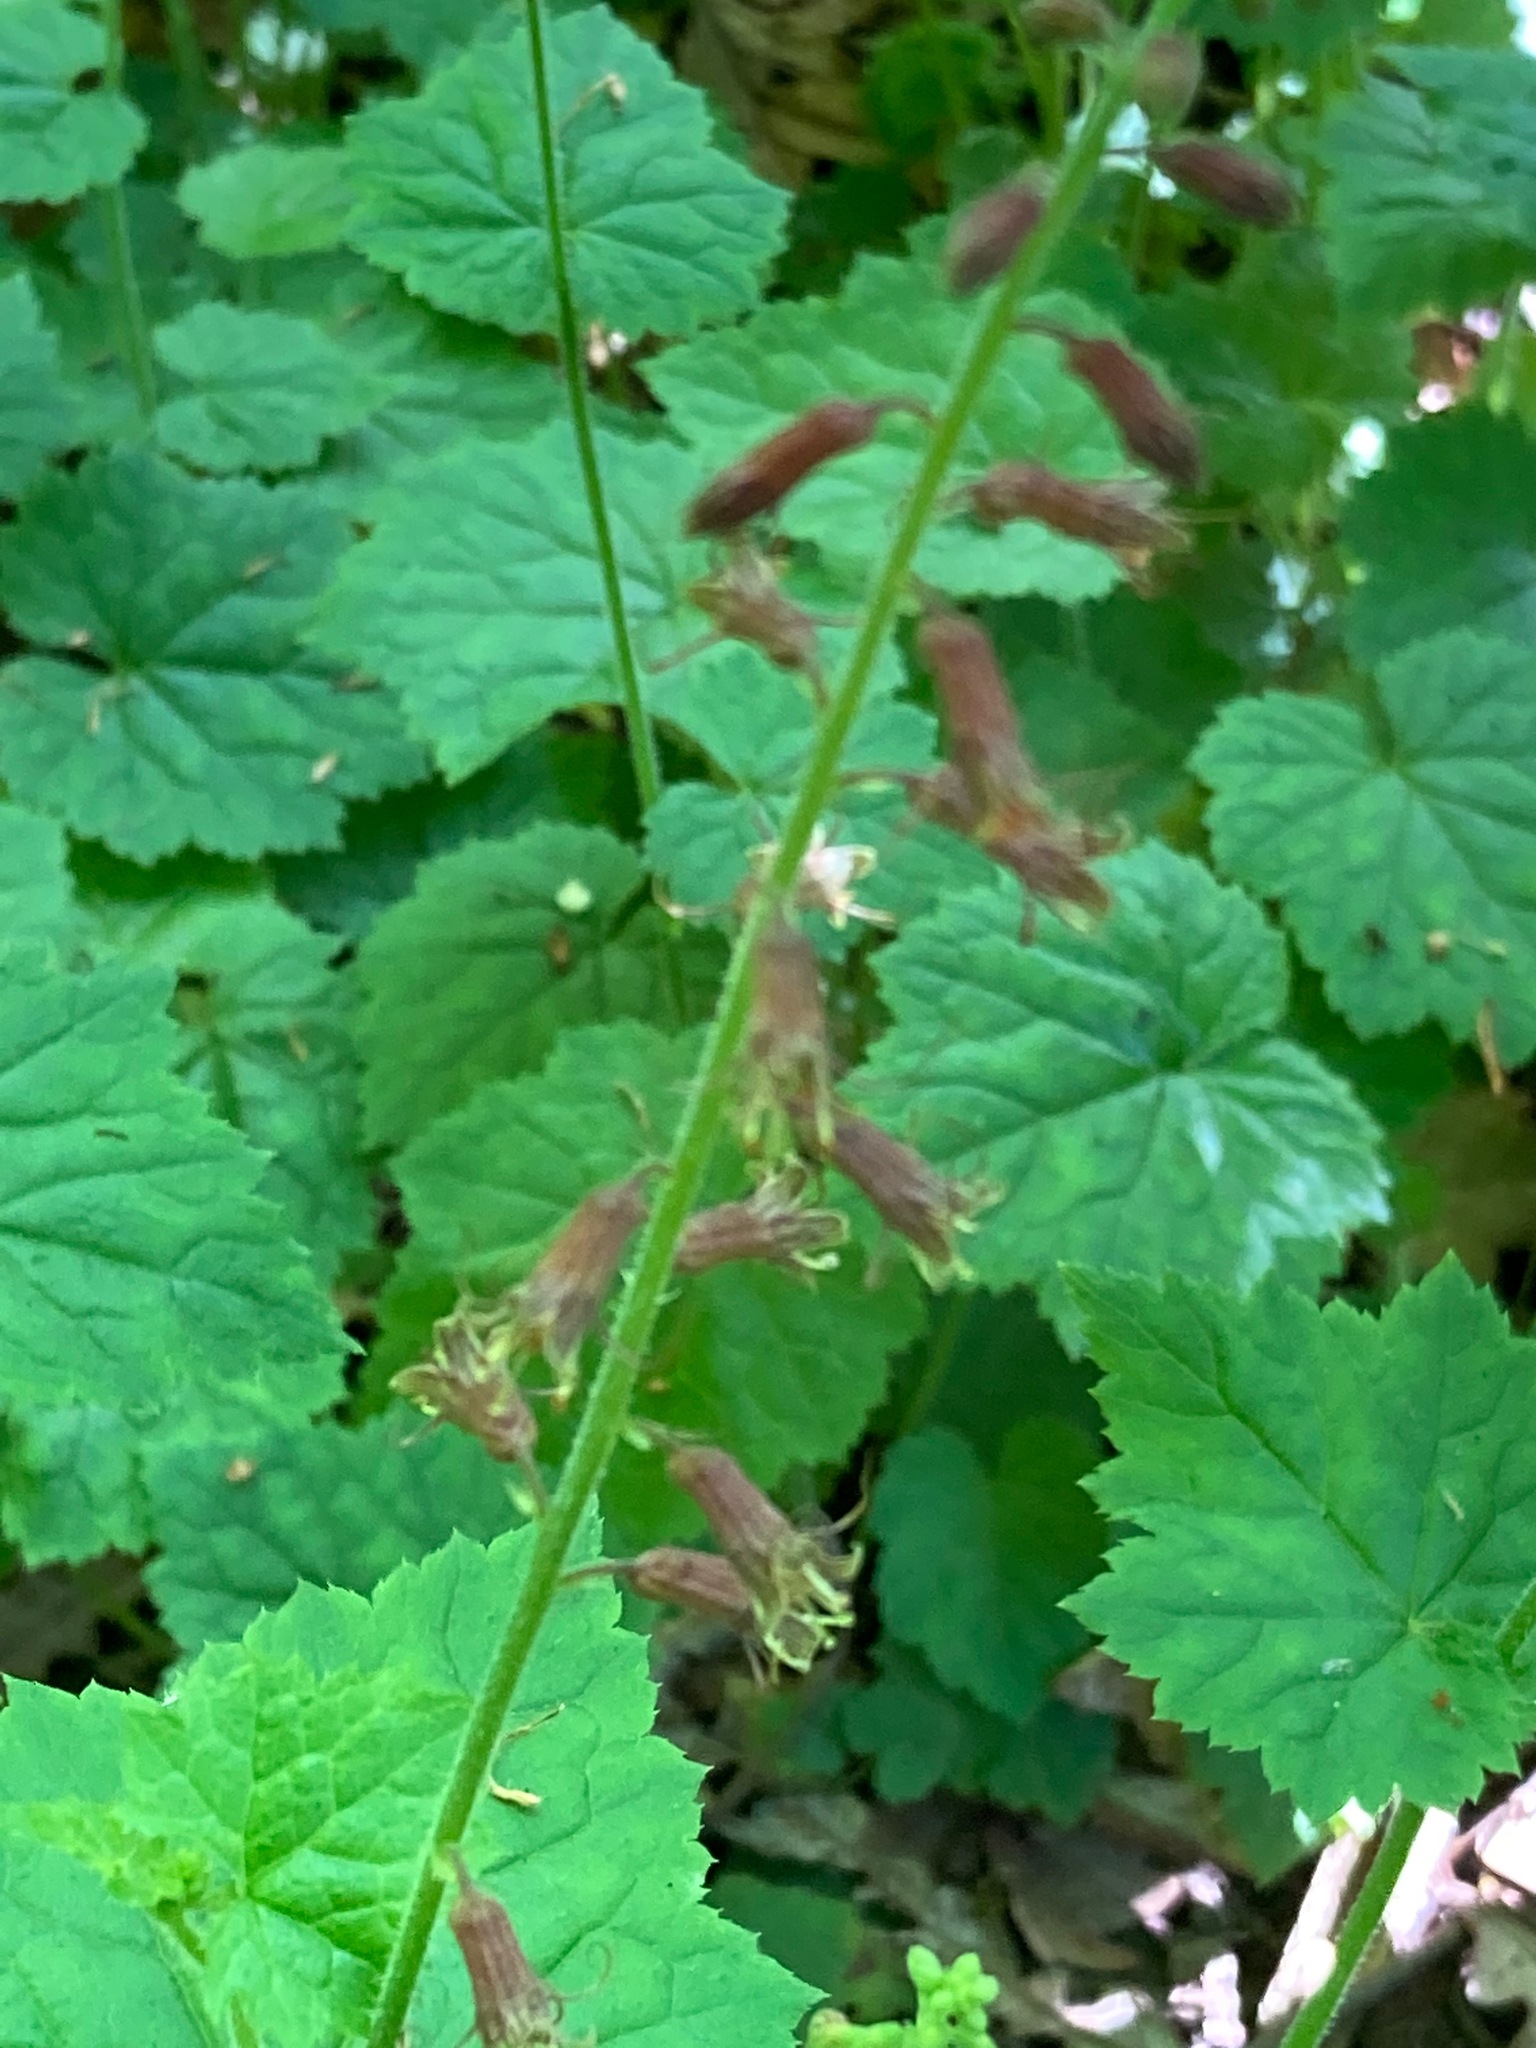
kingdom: Plantae
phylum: Tracheophyta
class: Magnoliopsida
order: Saxifragales
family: Saxifragaceae
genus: Tolmiea
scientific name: Tolmiea menziesii
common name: Pick-a-back-plant
